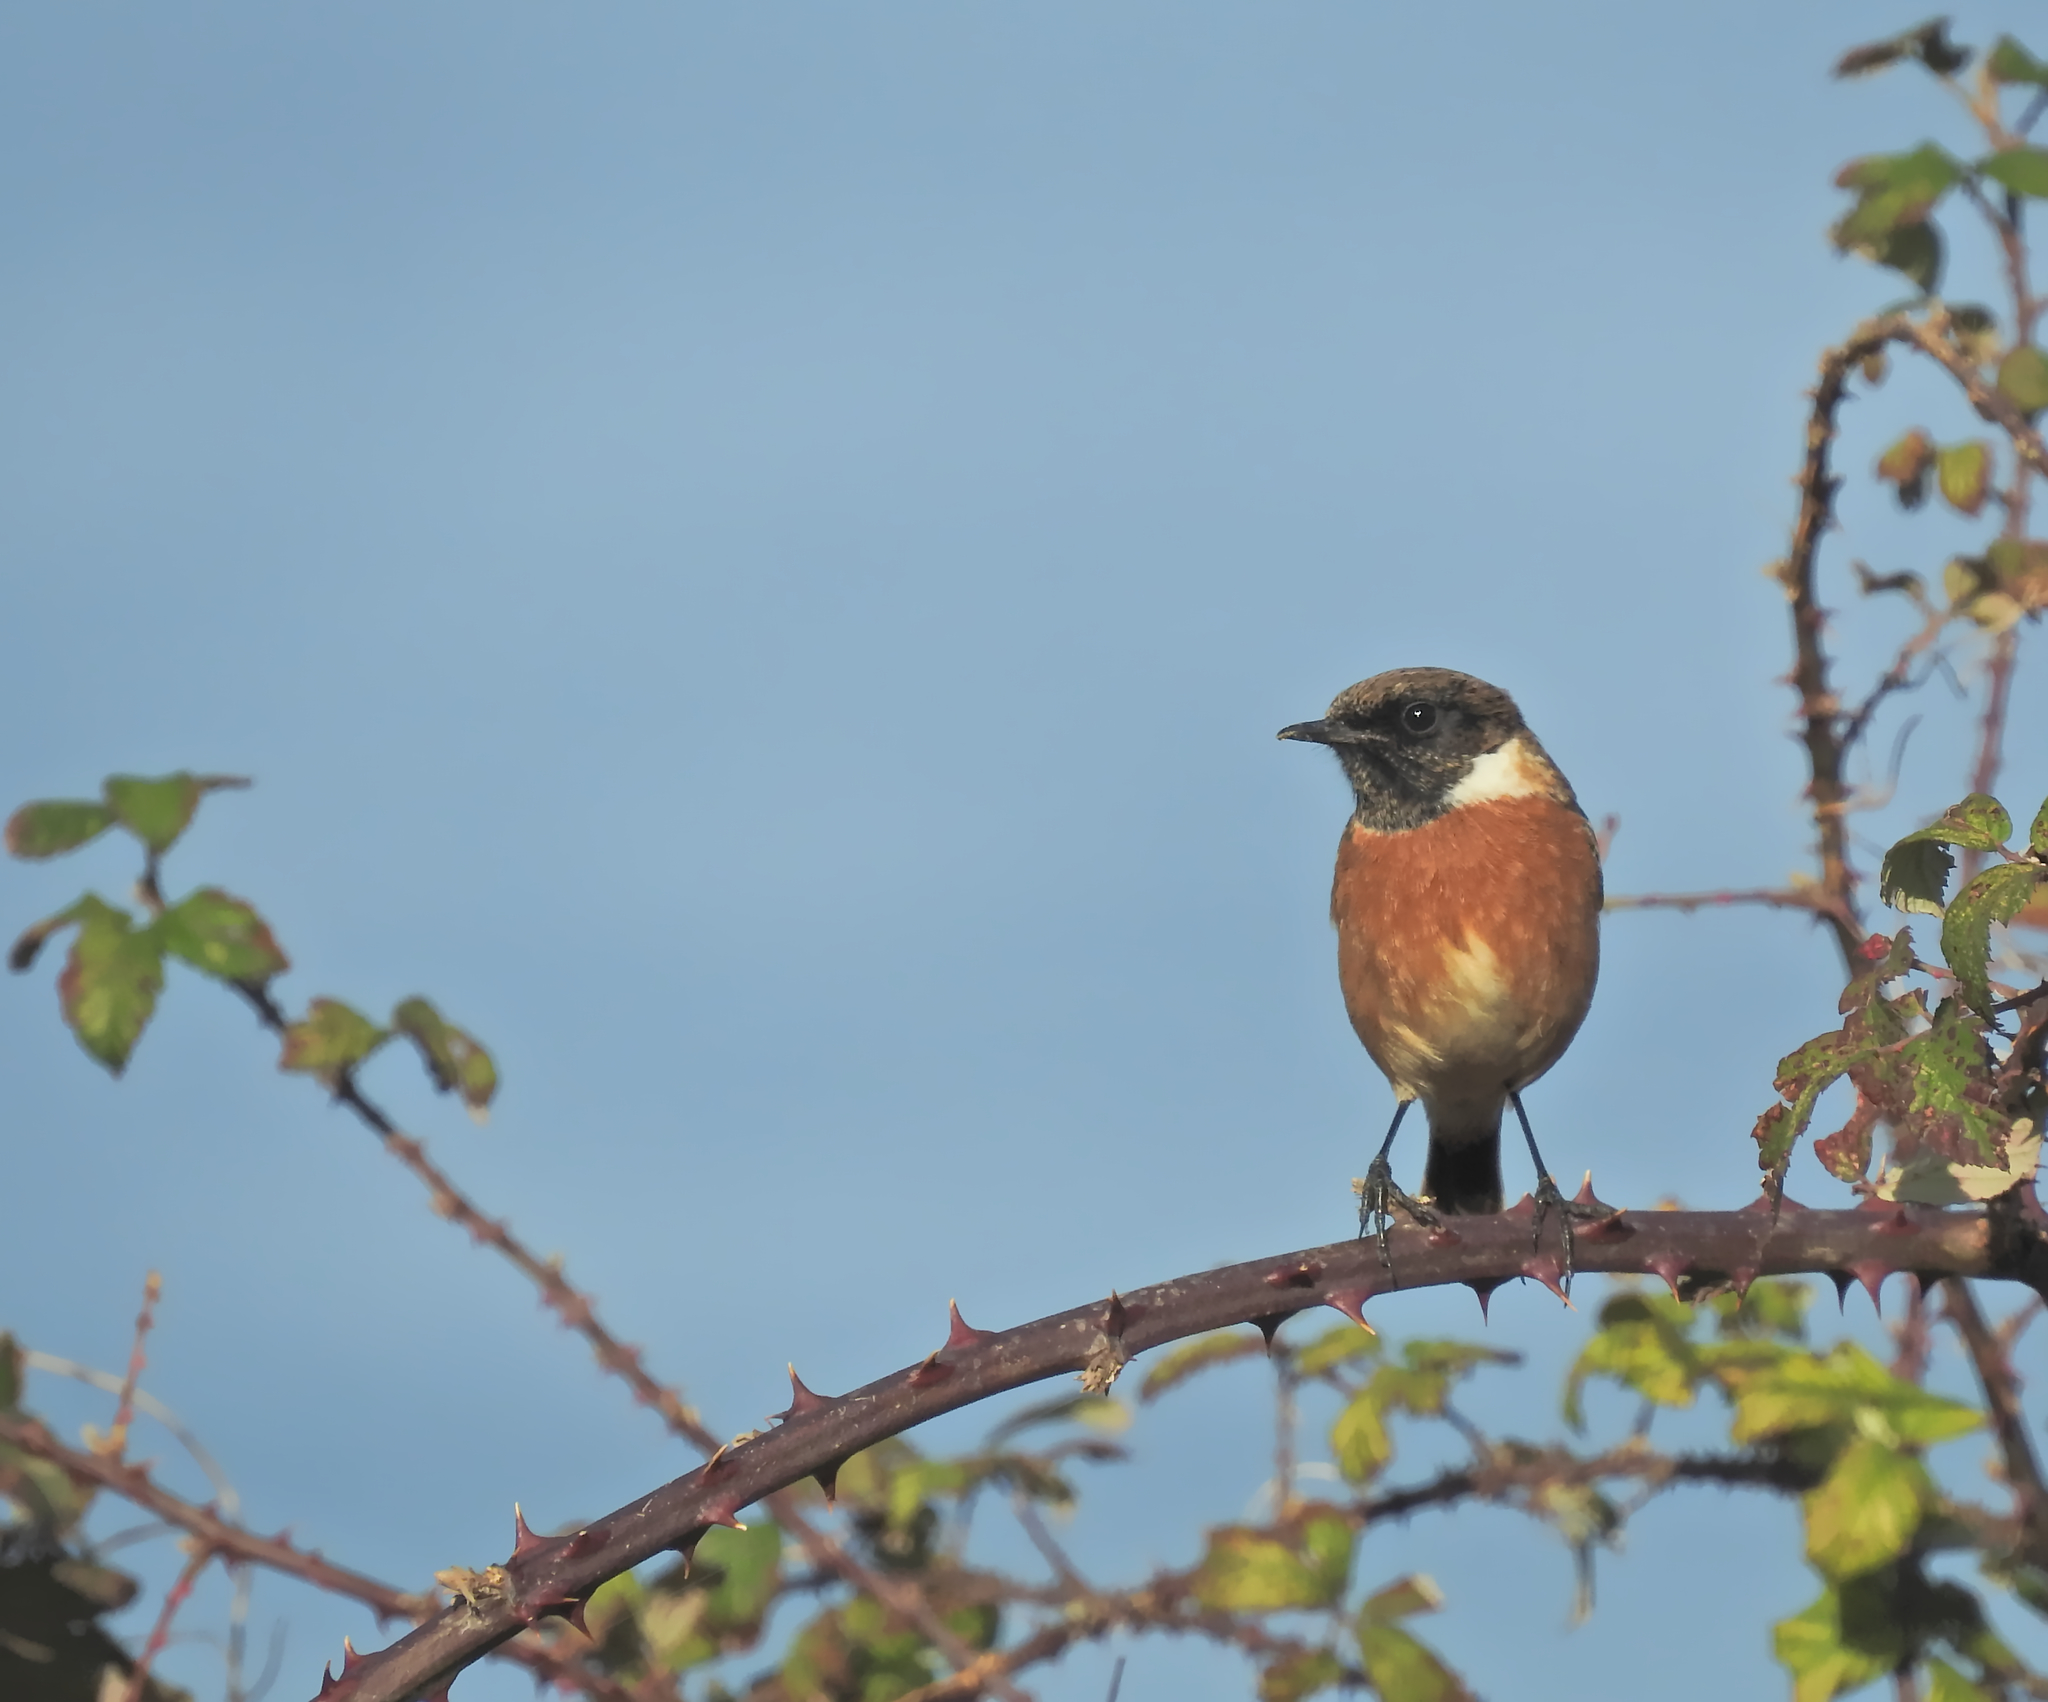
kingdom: Animalia
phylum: Chordata
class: Aves
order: Passeriformes
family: Muscicapidae
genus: Saxicola
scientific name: Saxicola rubicola
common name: European stonechat
